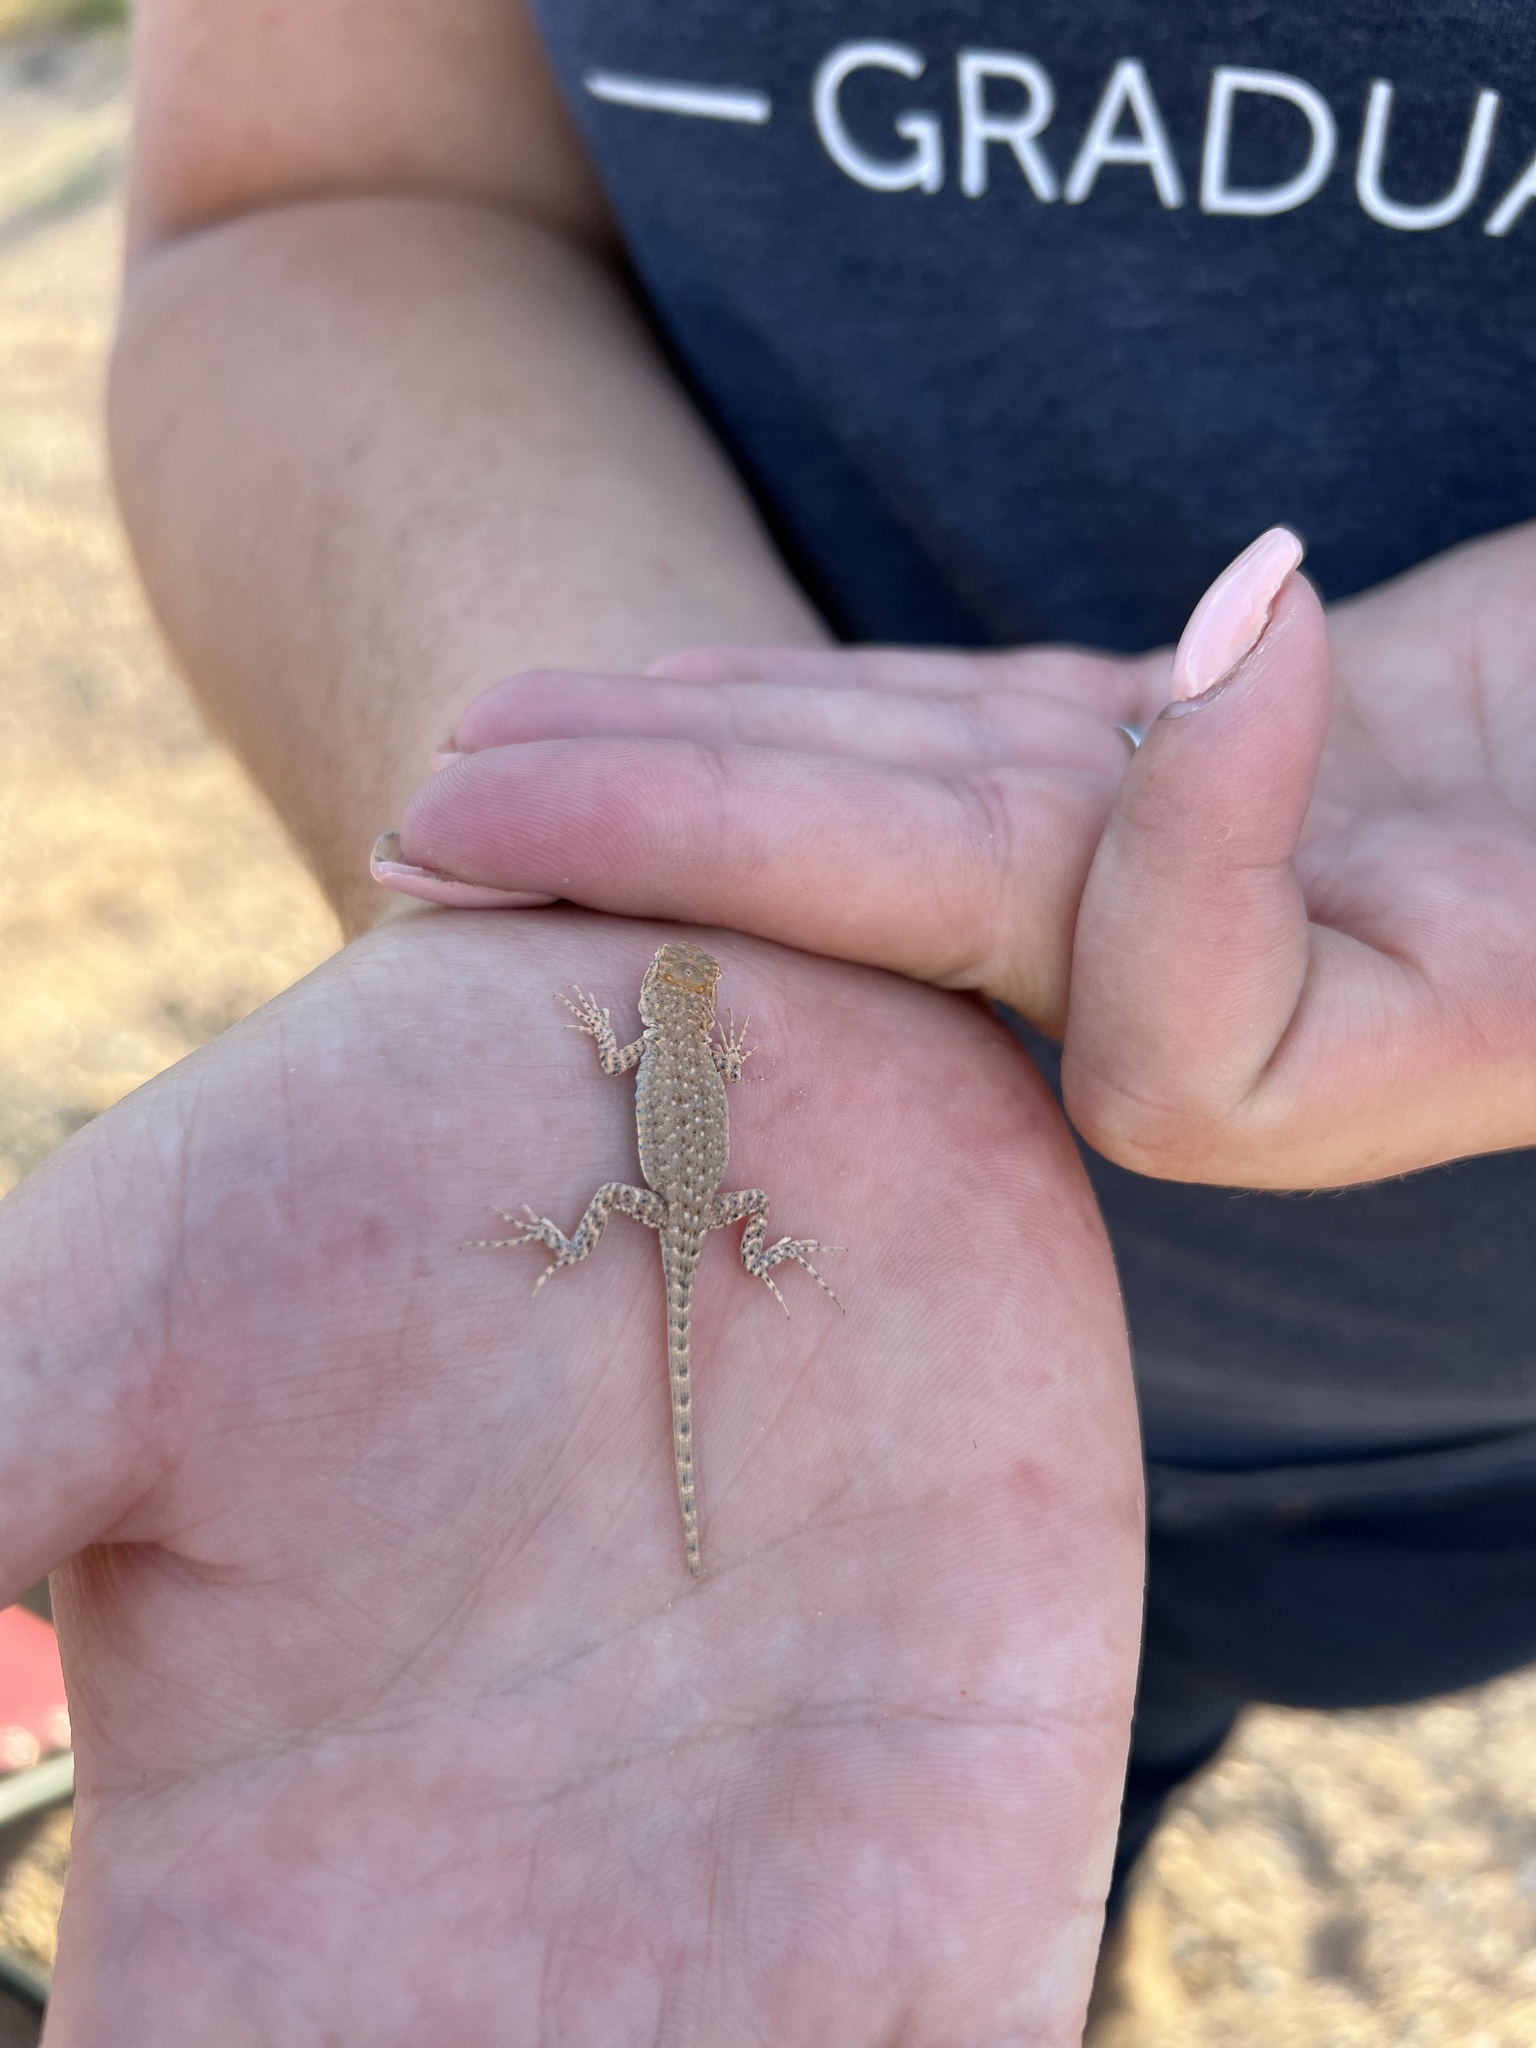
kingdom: Animalia
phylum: Chordata
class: Squamata
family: Phrynosomatidae
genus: Uta
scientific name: Uta stansburiana
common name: Side-blotched lizard
